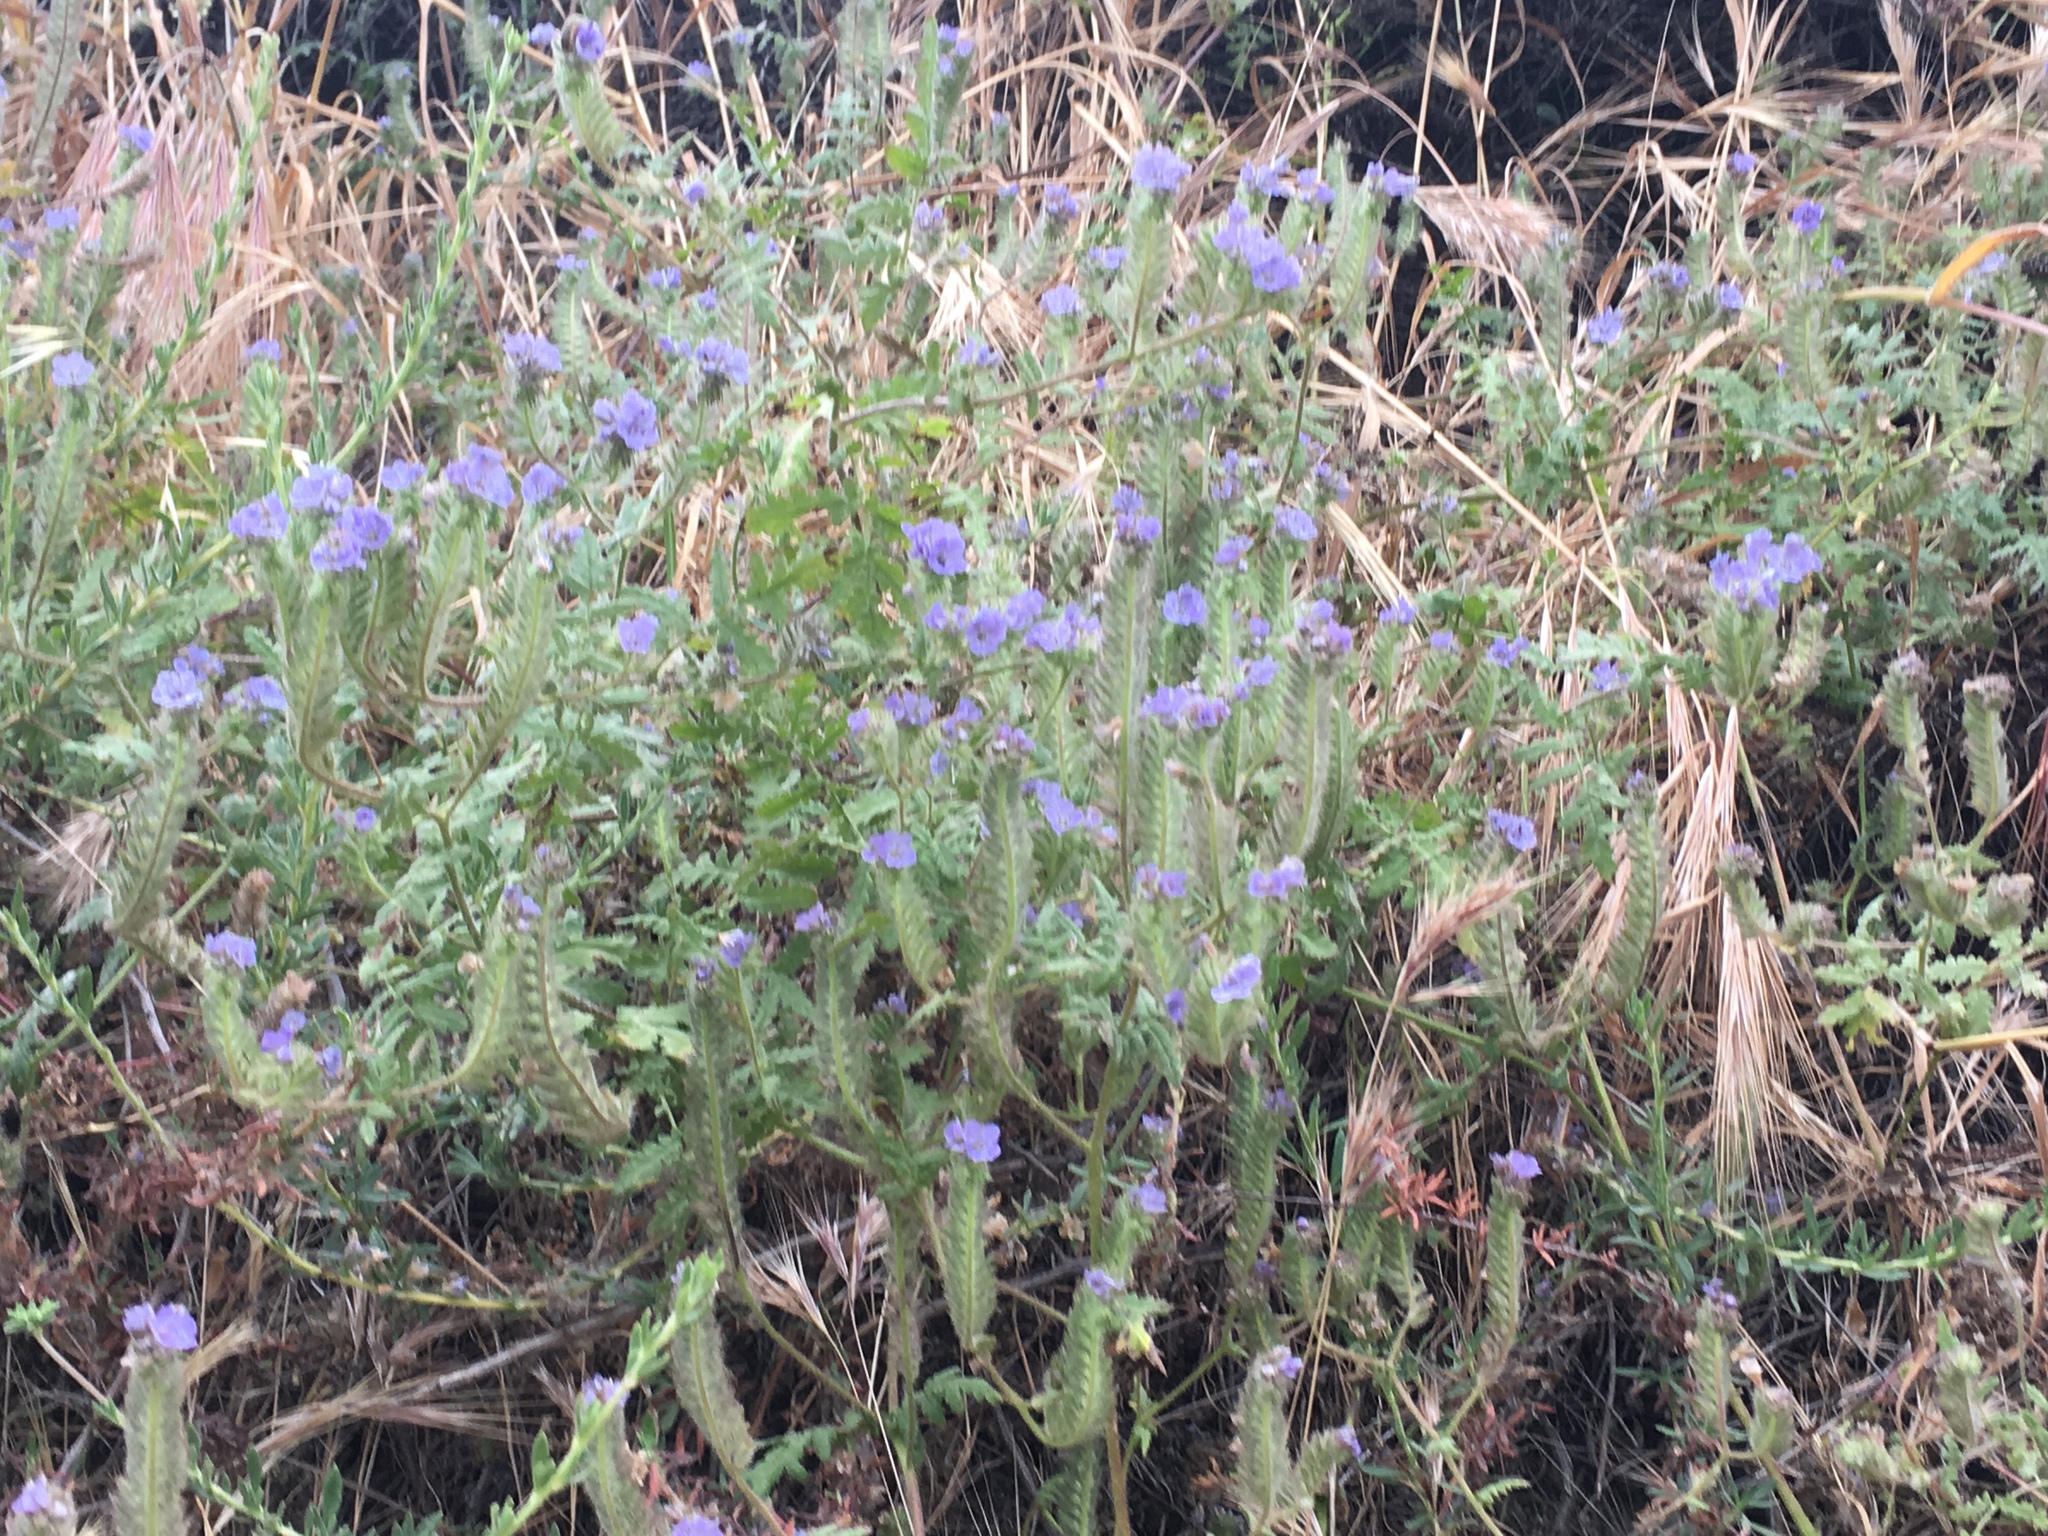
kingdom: Plantae
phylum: Tracheophyta
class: Magnoliopsida
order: Boraginales
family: Hydrophyllaceae
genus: Phacelia
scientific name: Phacelia distans
